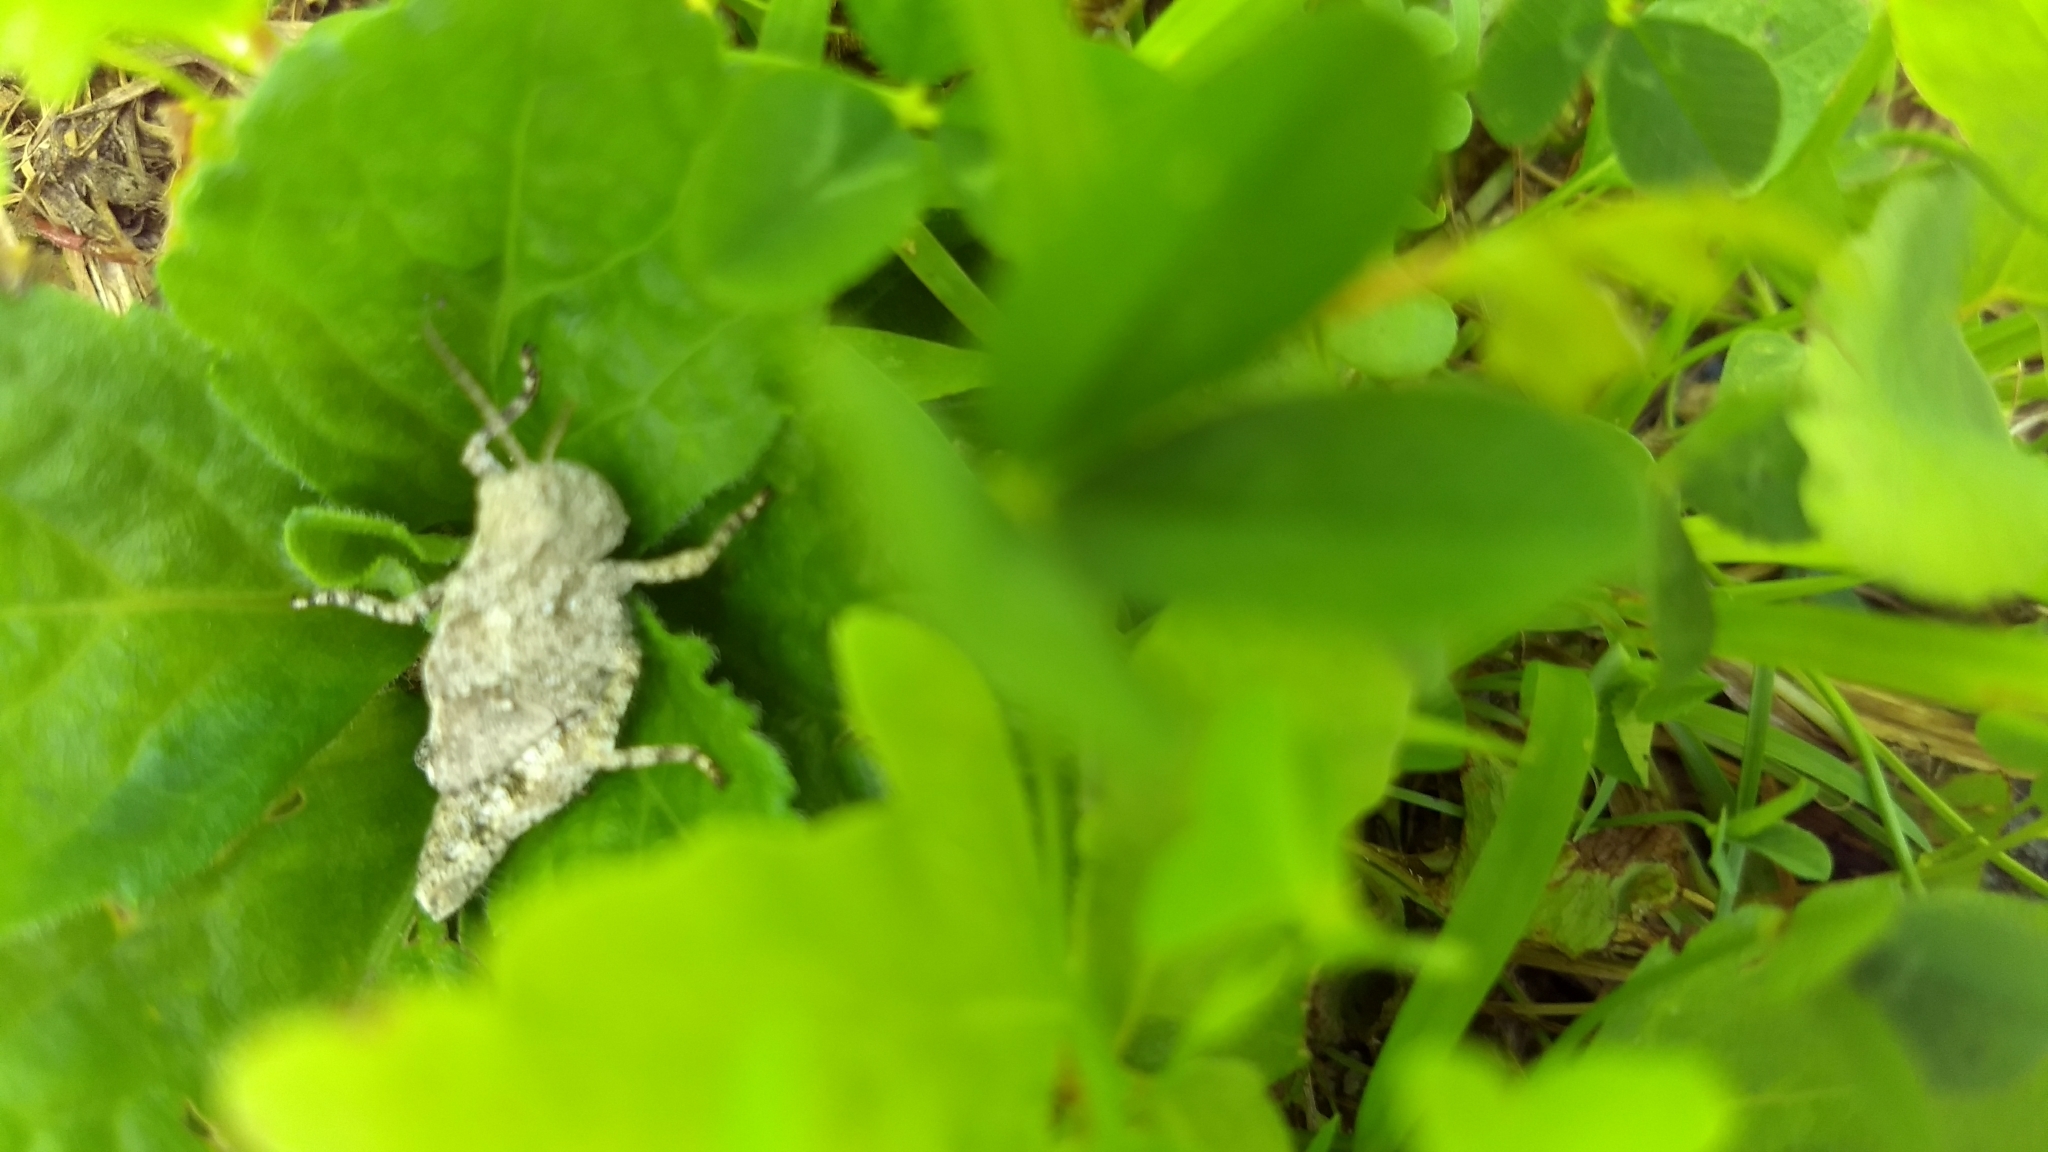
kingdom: Animalia
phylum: Arthropoda
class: Insecta
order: Orthoptera
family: Acrididae
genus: Dissosteira
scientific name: Dissosteira carolina
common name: Carolina grasshopper
